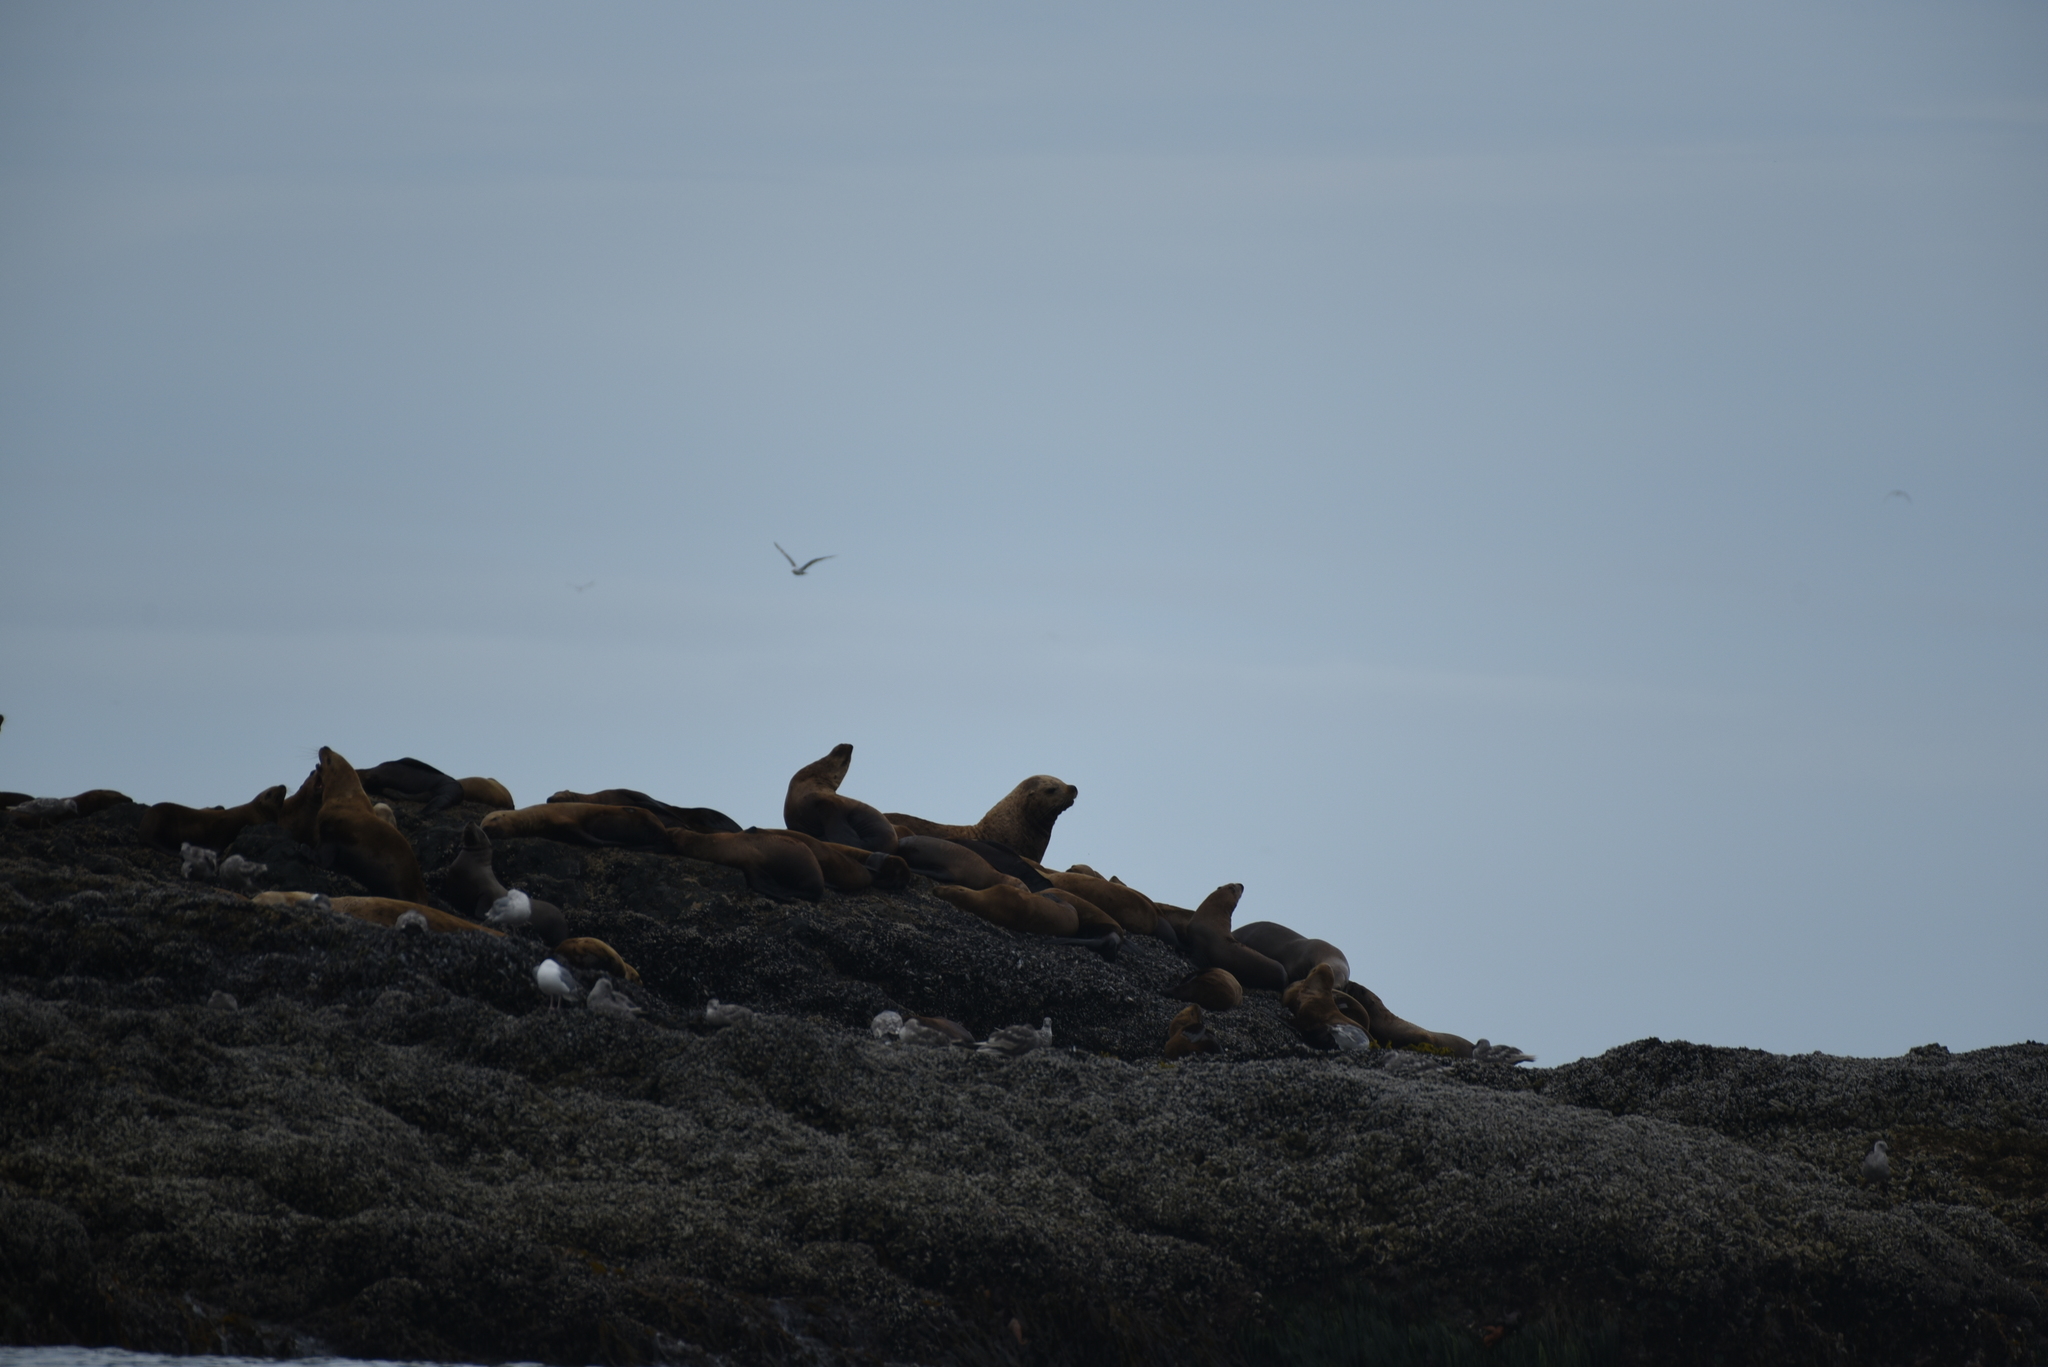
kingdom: Animalia
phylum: Chordata
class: Mammalia
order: Carnivora
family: Otariidae
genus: Eumetopias
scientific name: Eumetopias jubatus
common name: Steller sea lion
